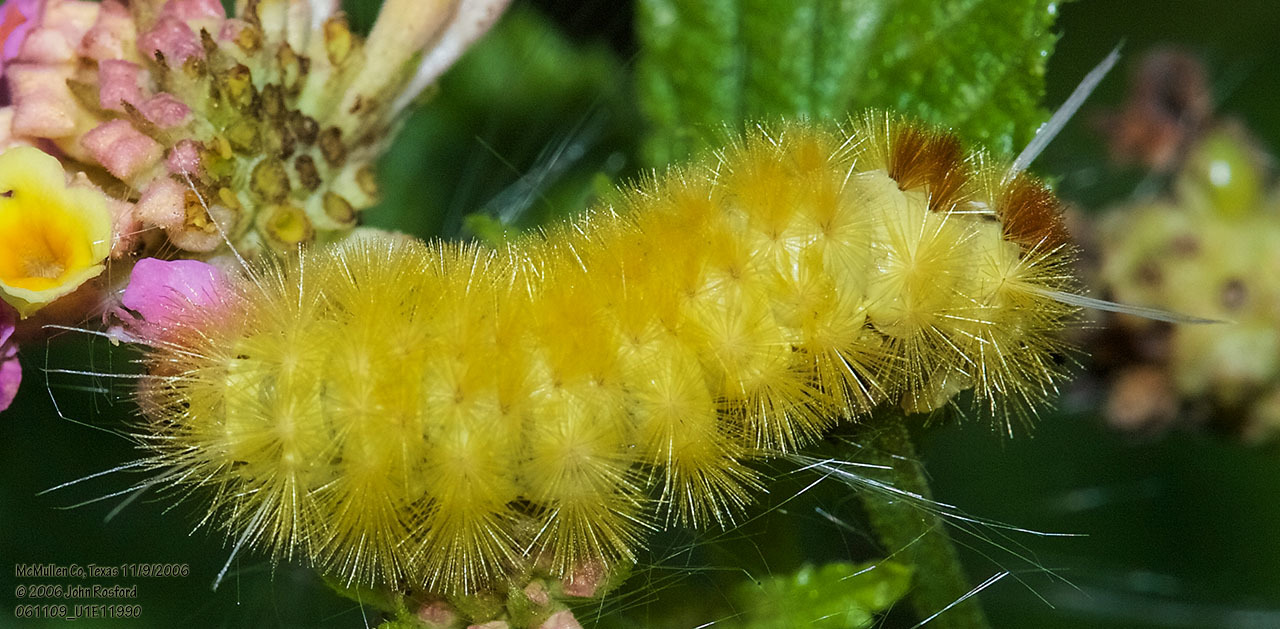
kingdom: Animalia
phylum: Arthropoda
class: Insecta
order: Lepidoptera
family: Erebidae
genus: Lophocampa
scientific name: Lophocampa annulosa
